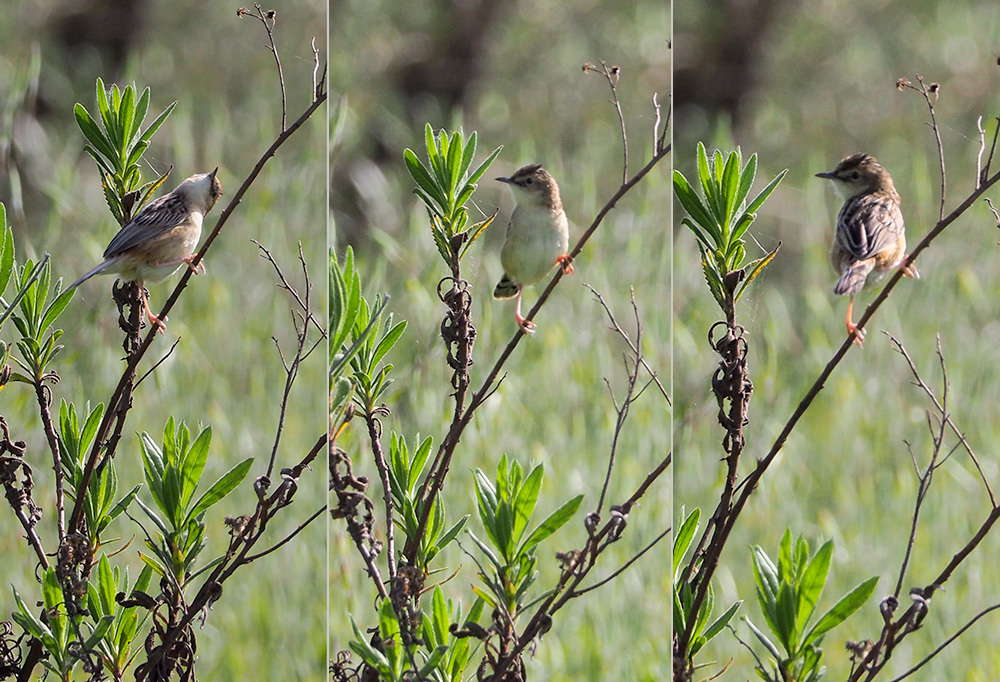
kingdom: Animalia
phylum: Chordata
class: Aves
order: Passeriformes
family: Cisticolidae
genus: Cisticola
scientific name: Cisticola juncidis
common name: Zitting cisticola
